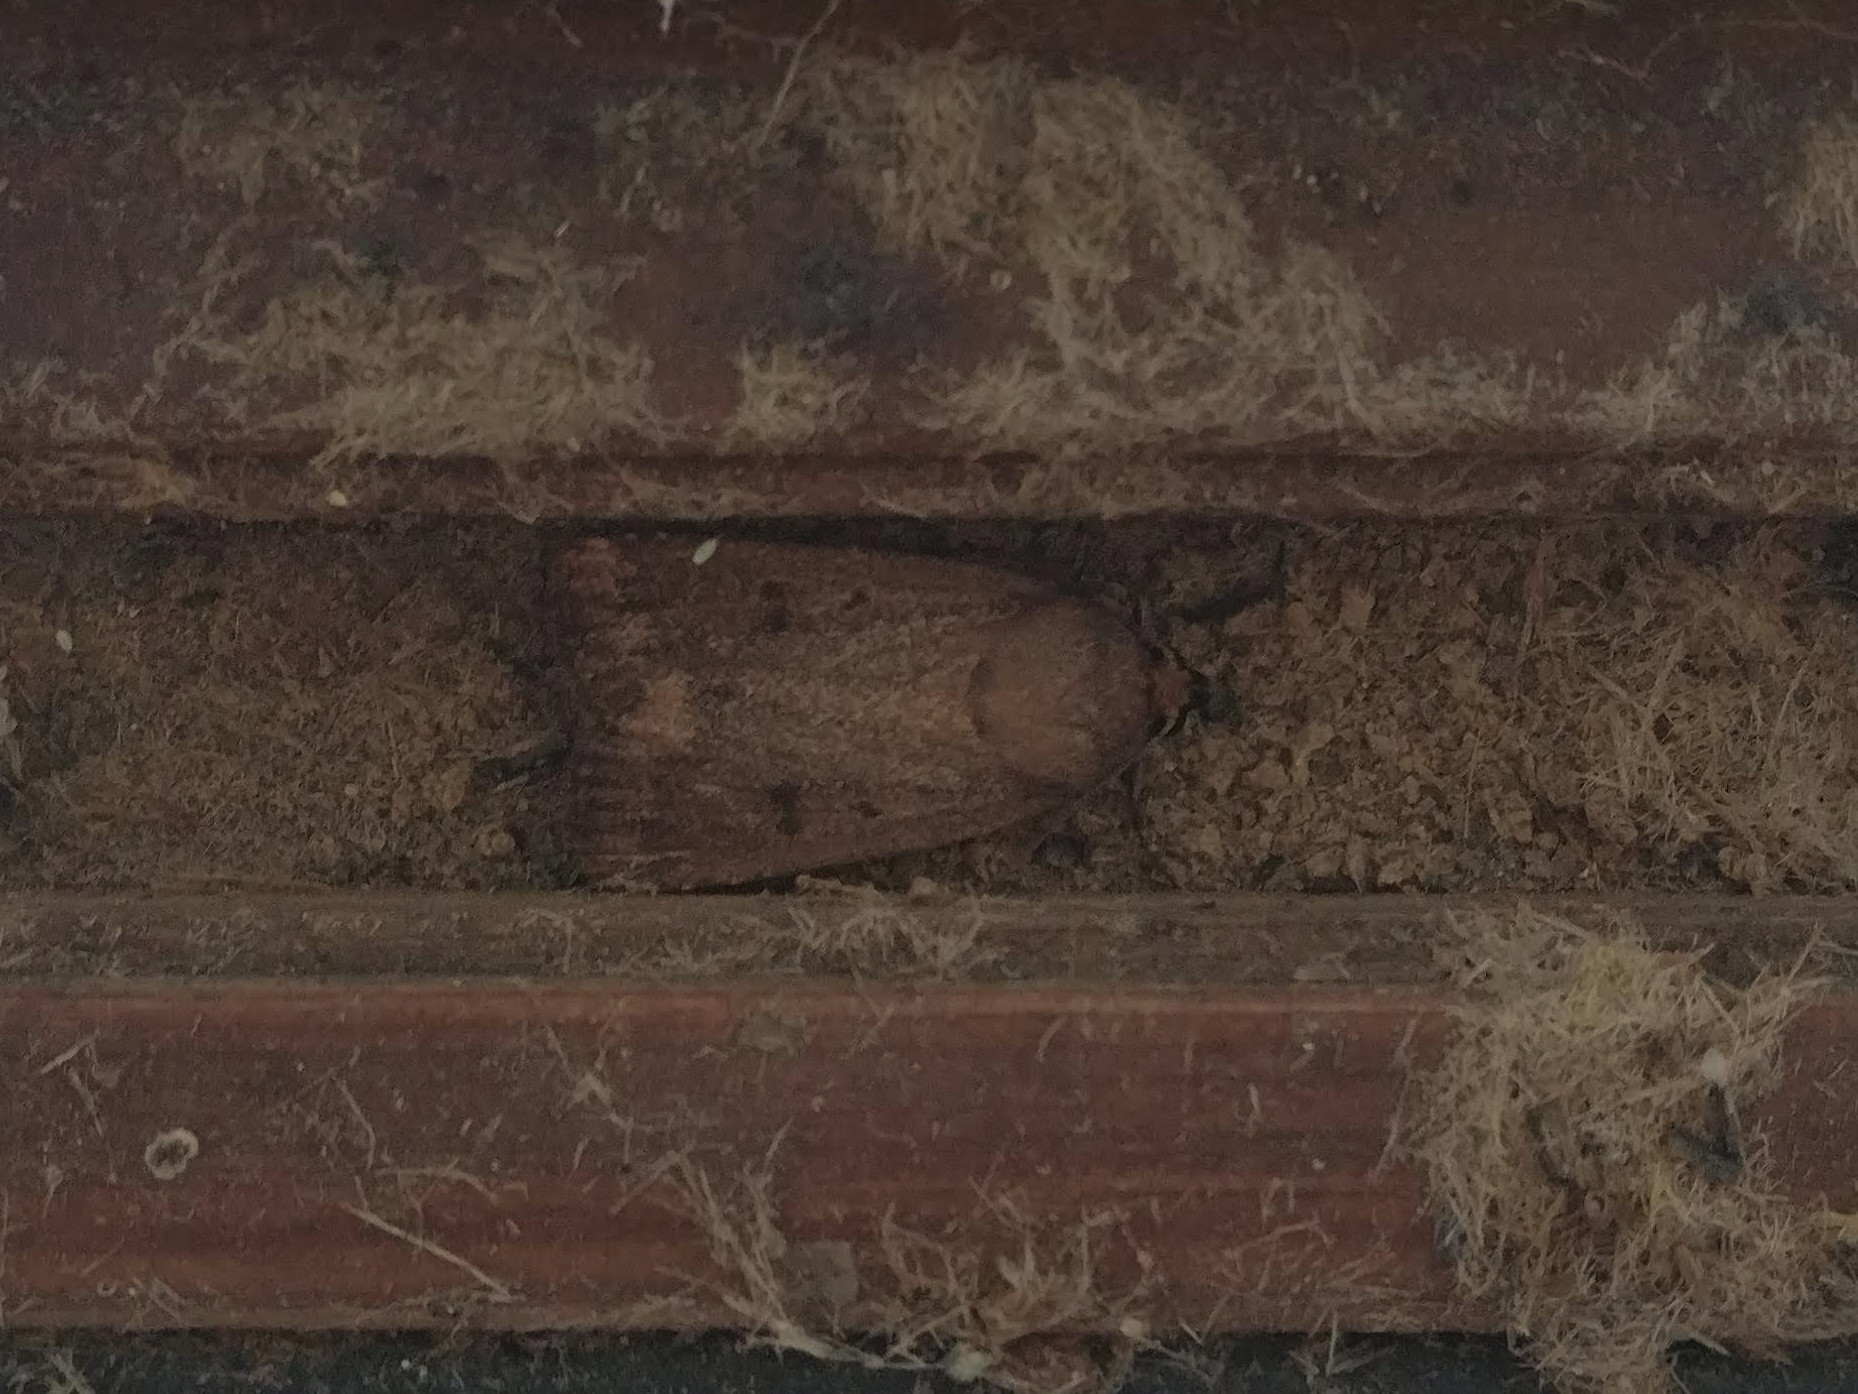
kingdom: Animalia
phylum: Arthropoda
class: Insecta
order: Lepidoptera
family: Noctuidae
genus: Amphipyra
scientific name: Amphipyra tragopoginis
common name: Mouse moth
